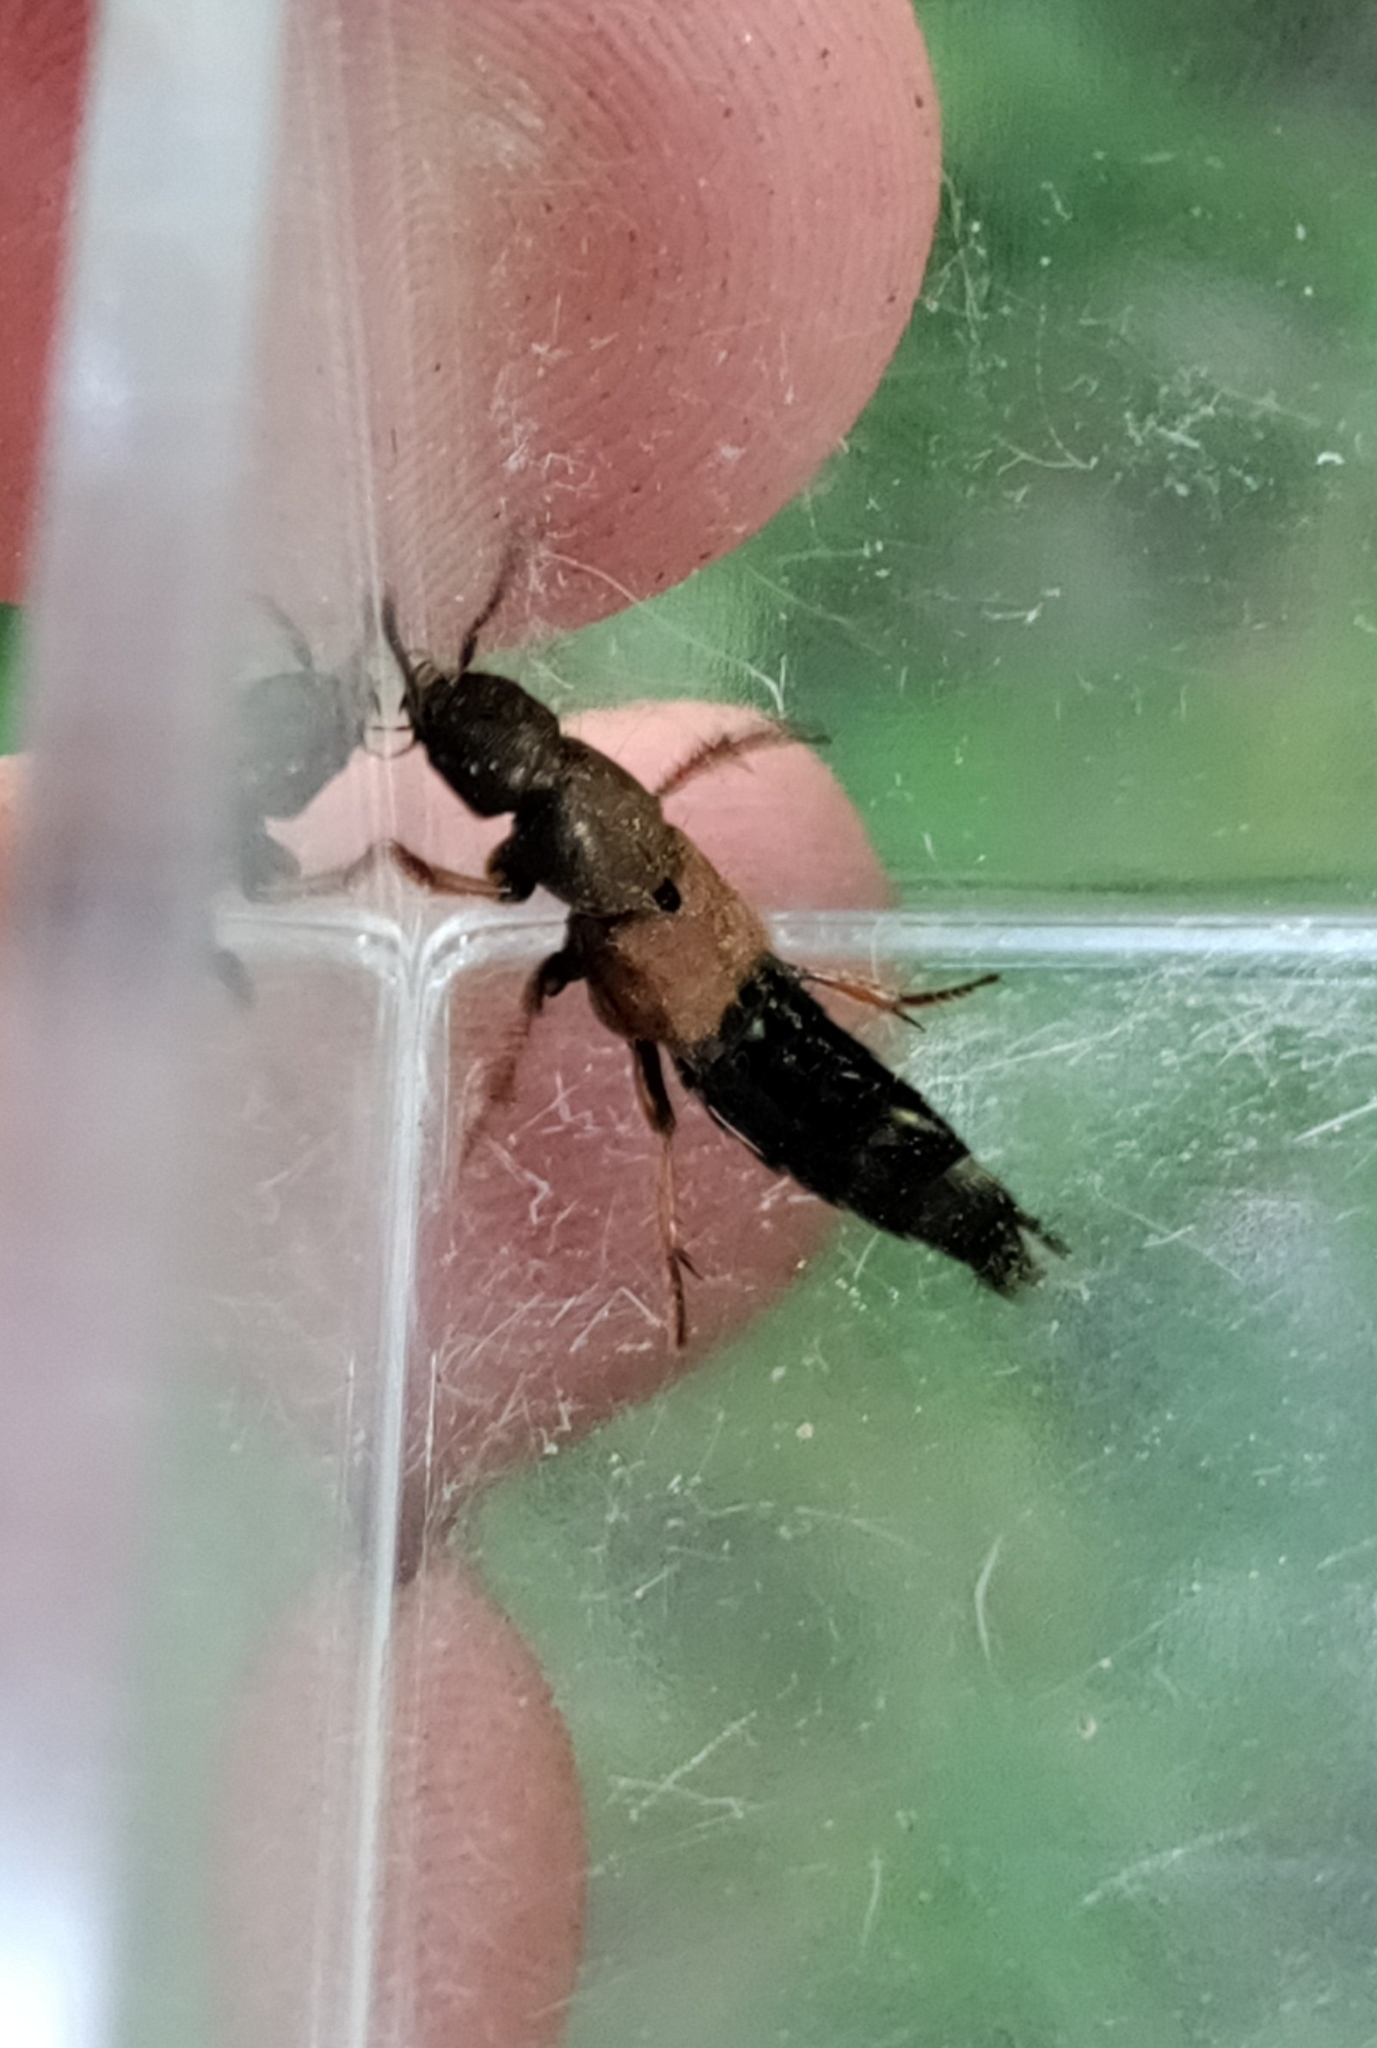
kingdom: Animalia
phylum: Arthropoda
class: Insecta
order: Coleoptera
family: Staphylinidae
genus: Platydracus
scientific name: Platydracus chalcocephalus
